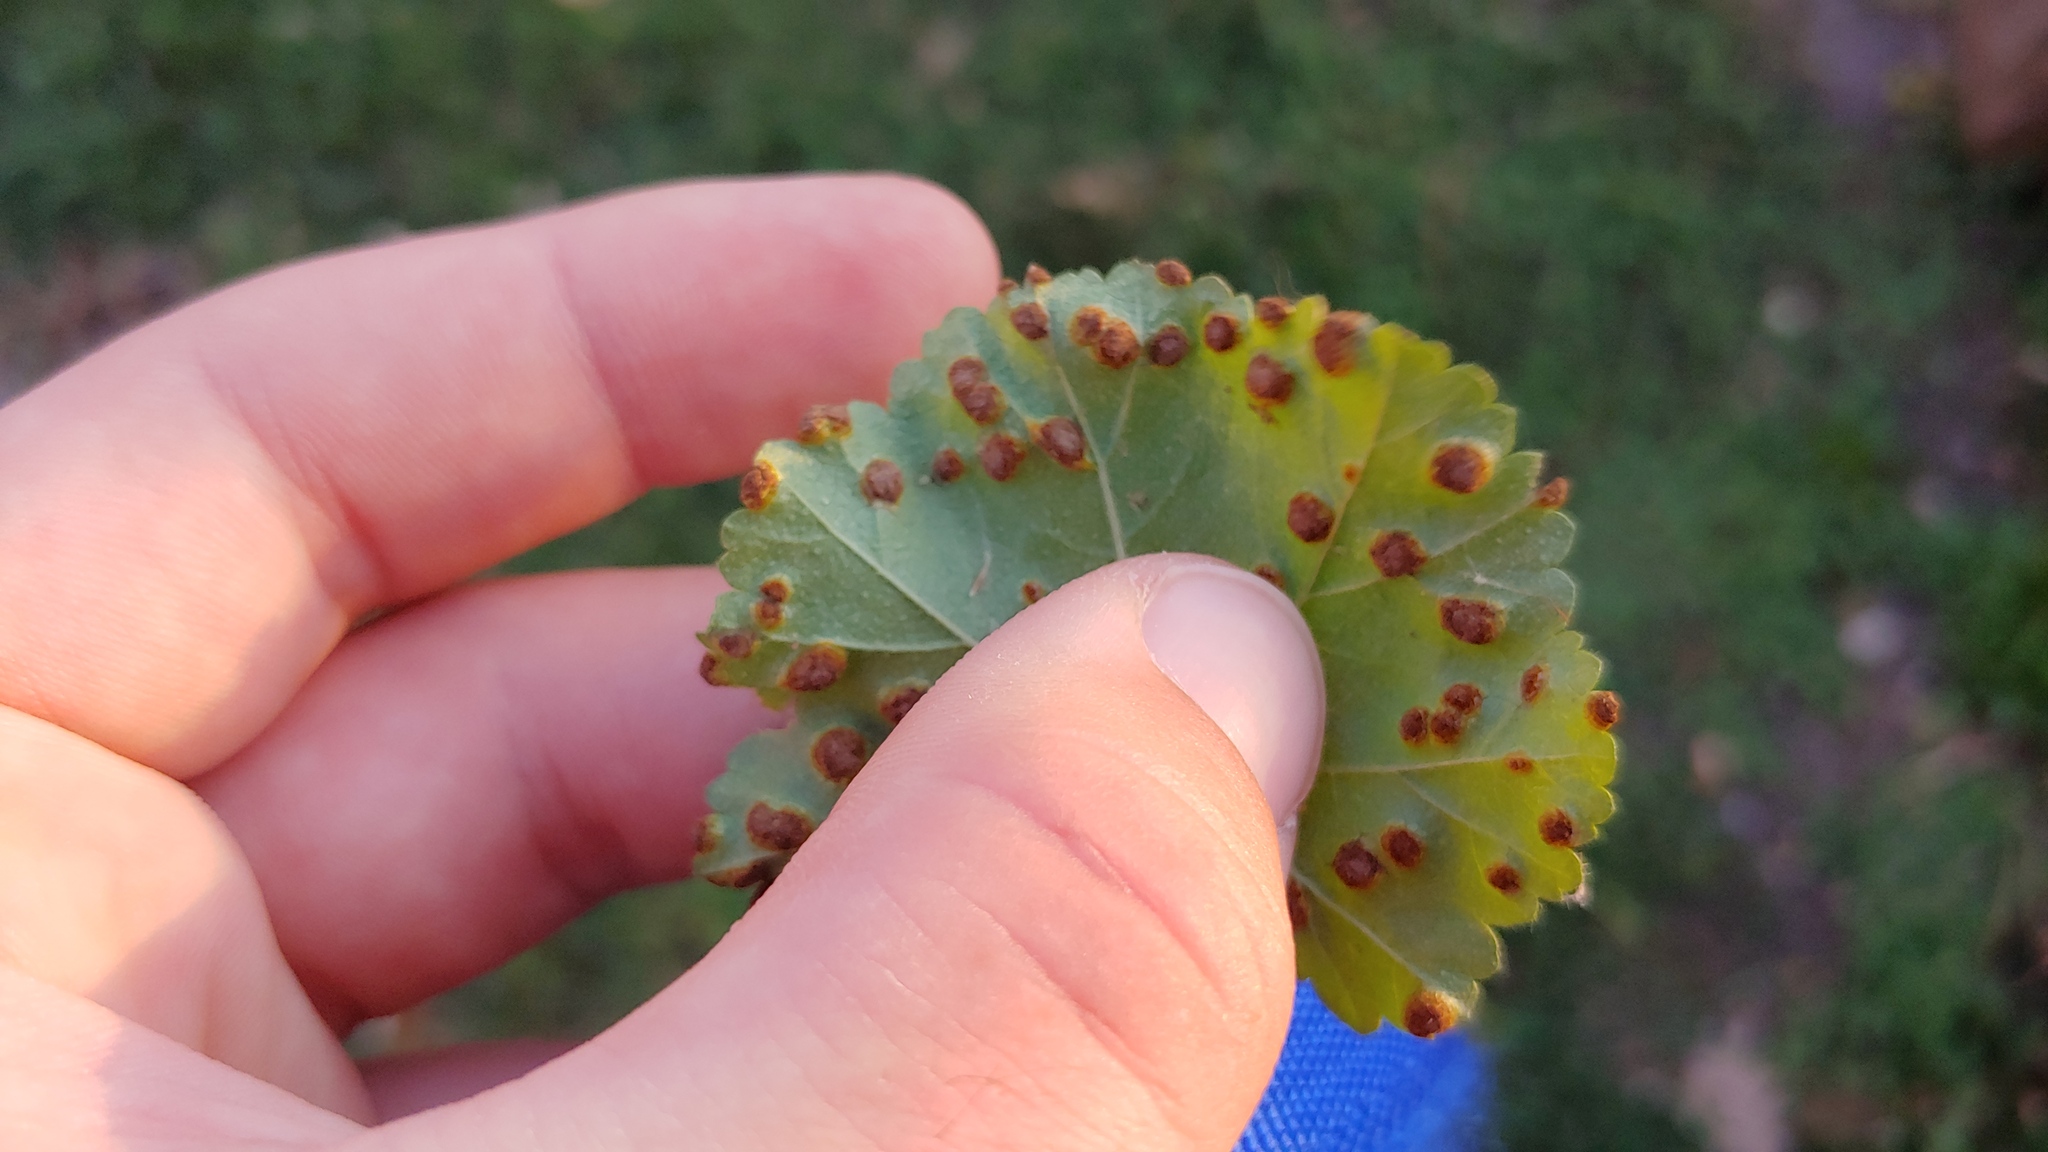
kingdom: Fungi
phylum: Basidiomycota
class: Pucciniomycetes
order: Pucciniales
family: Pucciniaceae
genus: Puccinia
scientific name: Puccinia malvacearum
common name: Hollyhock rust
